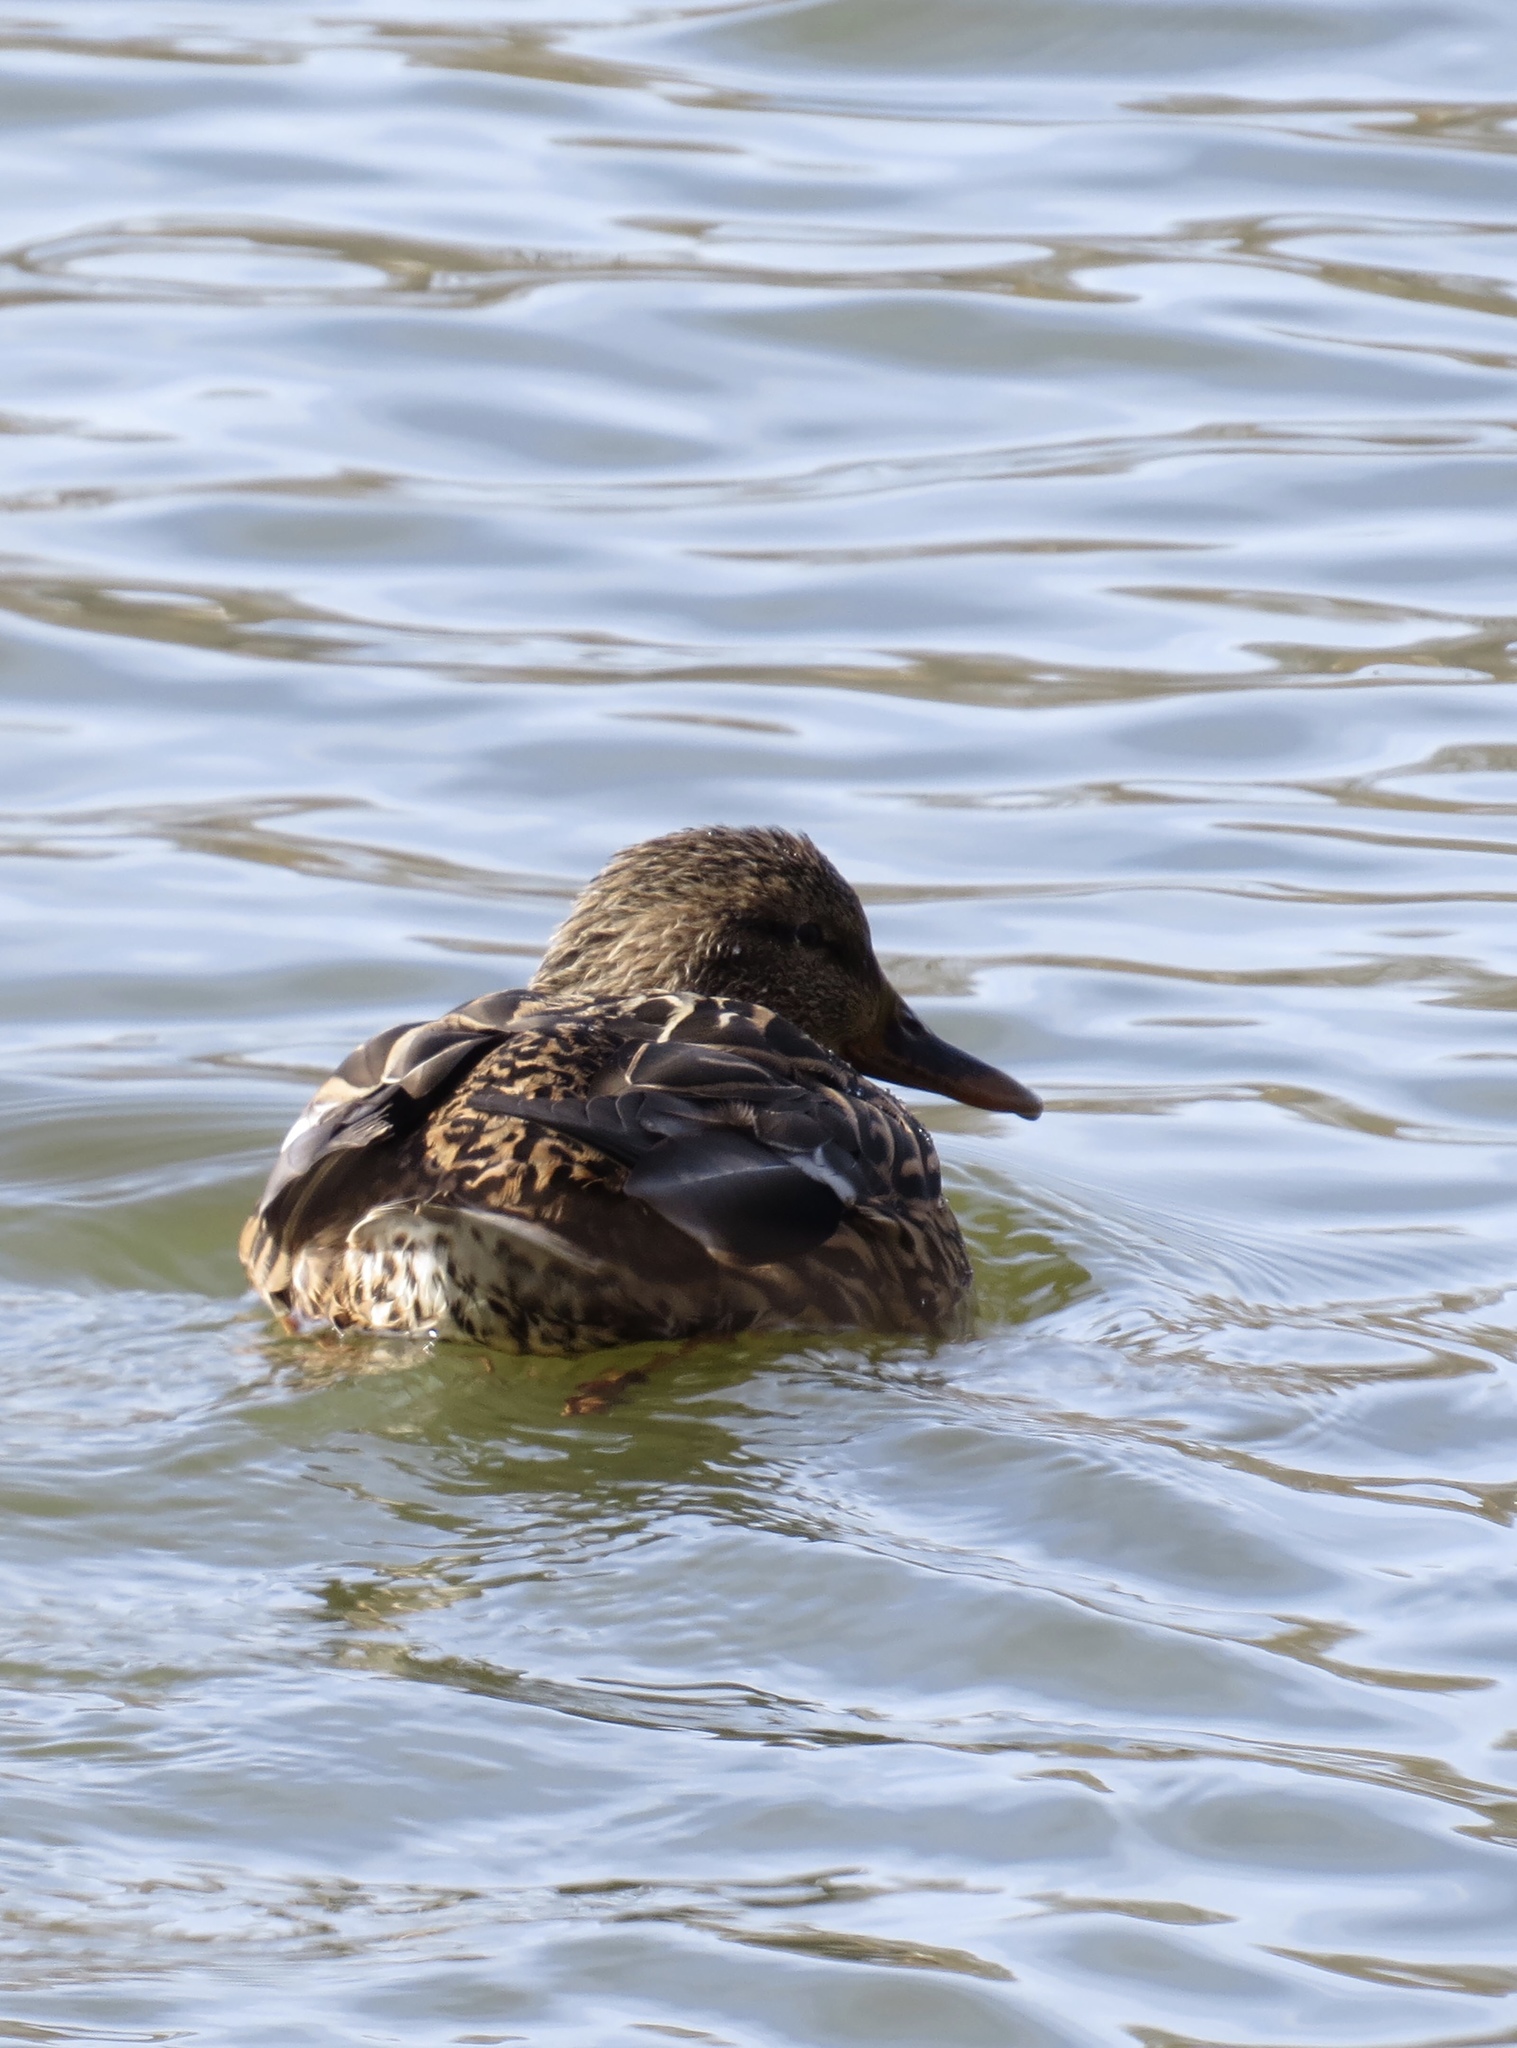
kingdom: Animalia
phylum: Chordata
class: Aves
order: Anseriformes
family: Anatidae
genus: Anas
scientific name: Anas platyrhynchos
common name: Mallard
